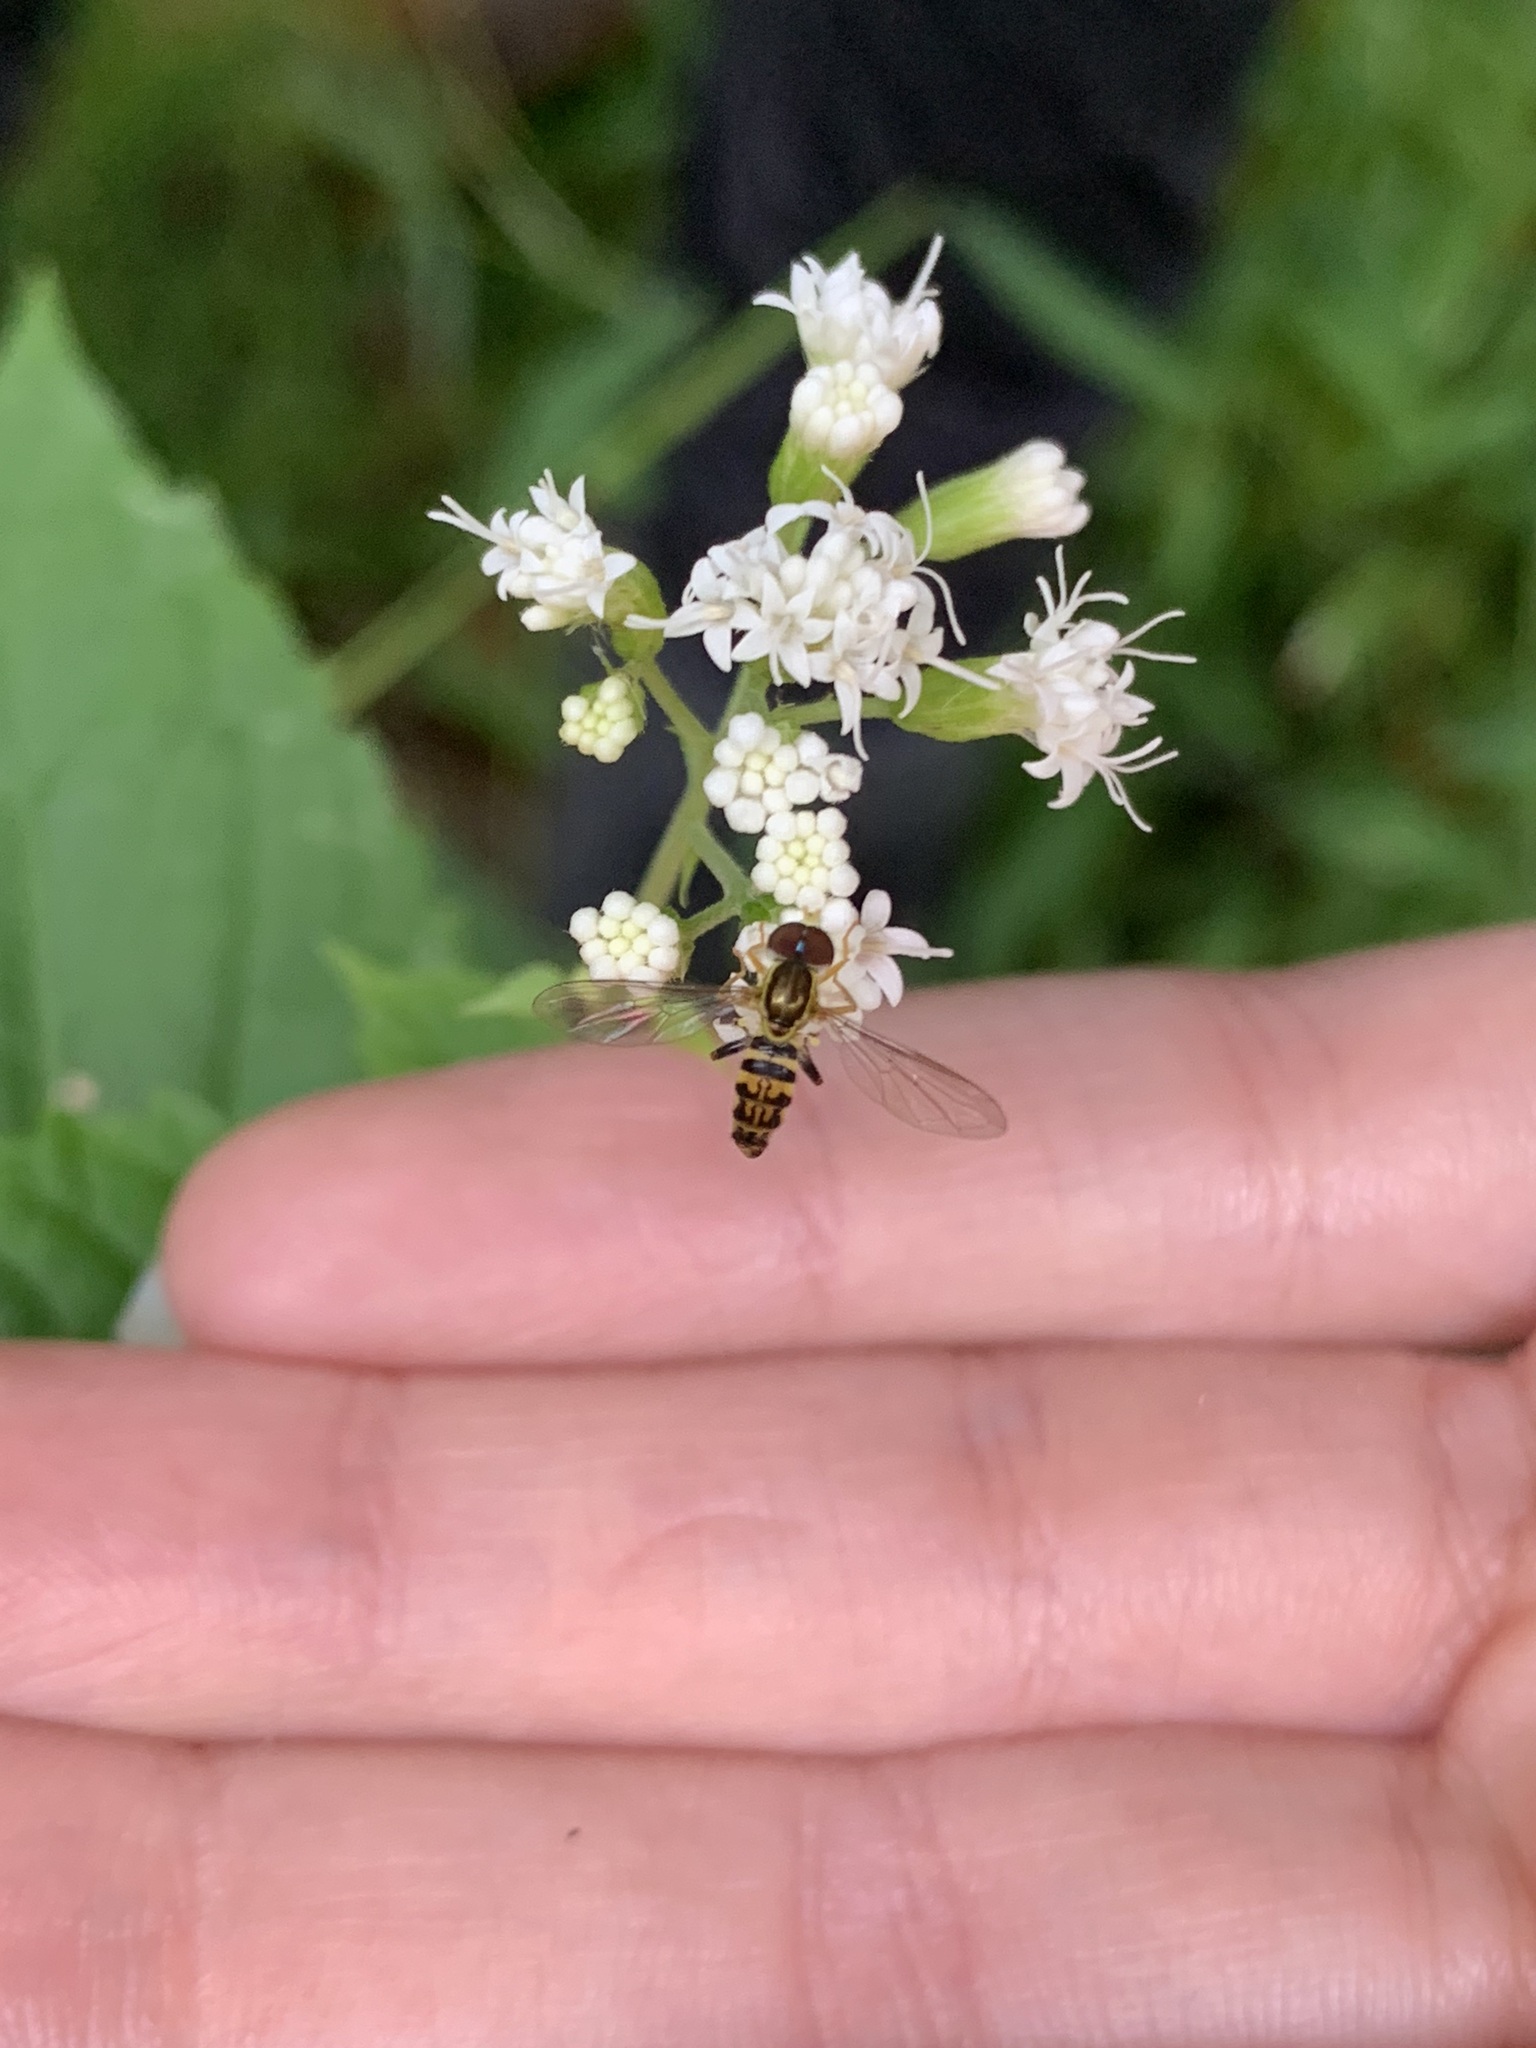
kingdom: Animalia
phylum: Arthropoda
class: Insecta
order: Diptera
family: Syrphidae
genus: Toxomerus
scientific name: Toxomerus geminatus
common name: Eastern calligrapher
